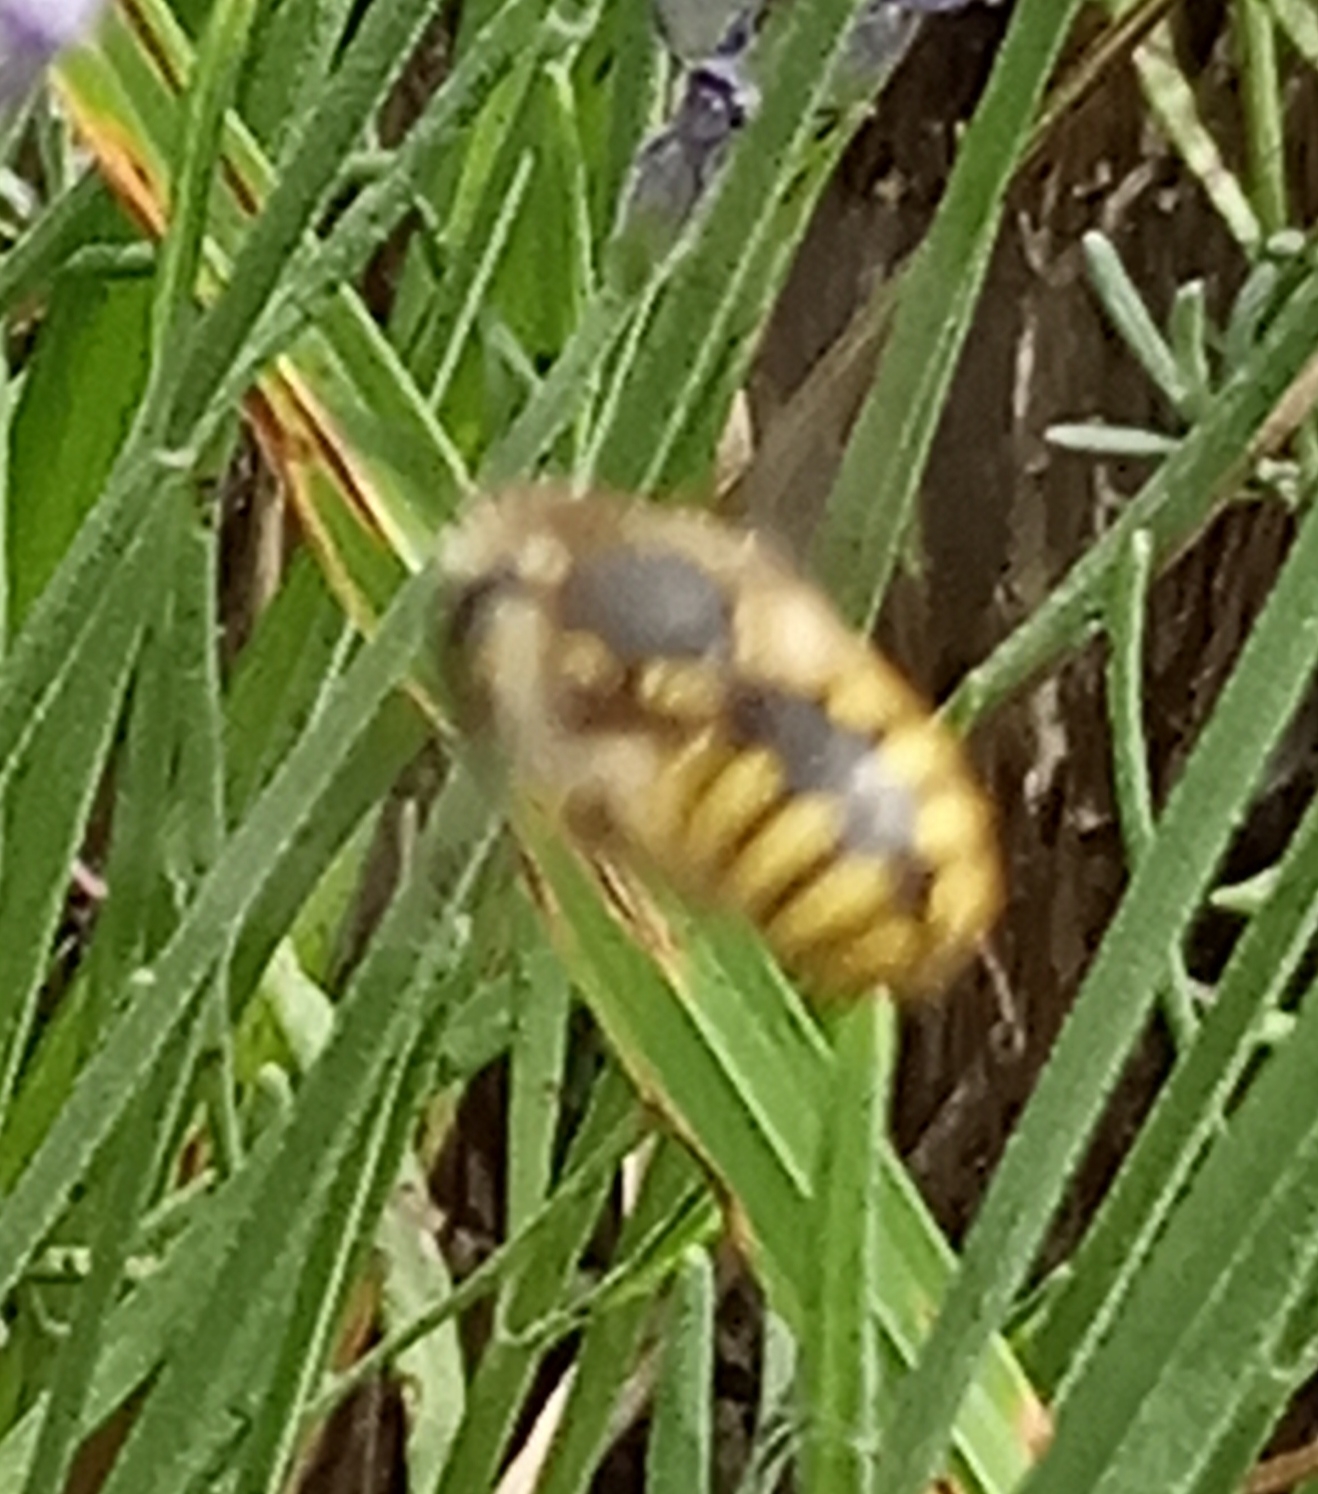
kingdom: Animalia
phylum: Arthropoda
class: Insecta
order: Hymenoptera
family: Megachilidae
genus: Anthidium
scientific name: Anthidium manicatum
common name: Wool carder bee
